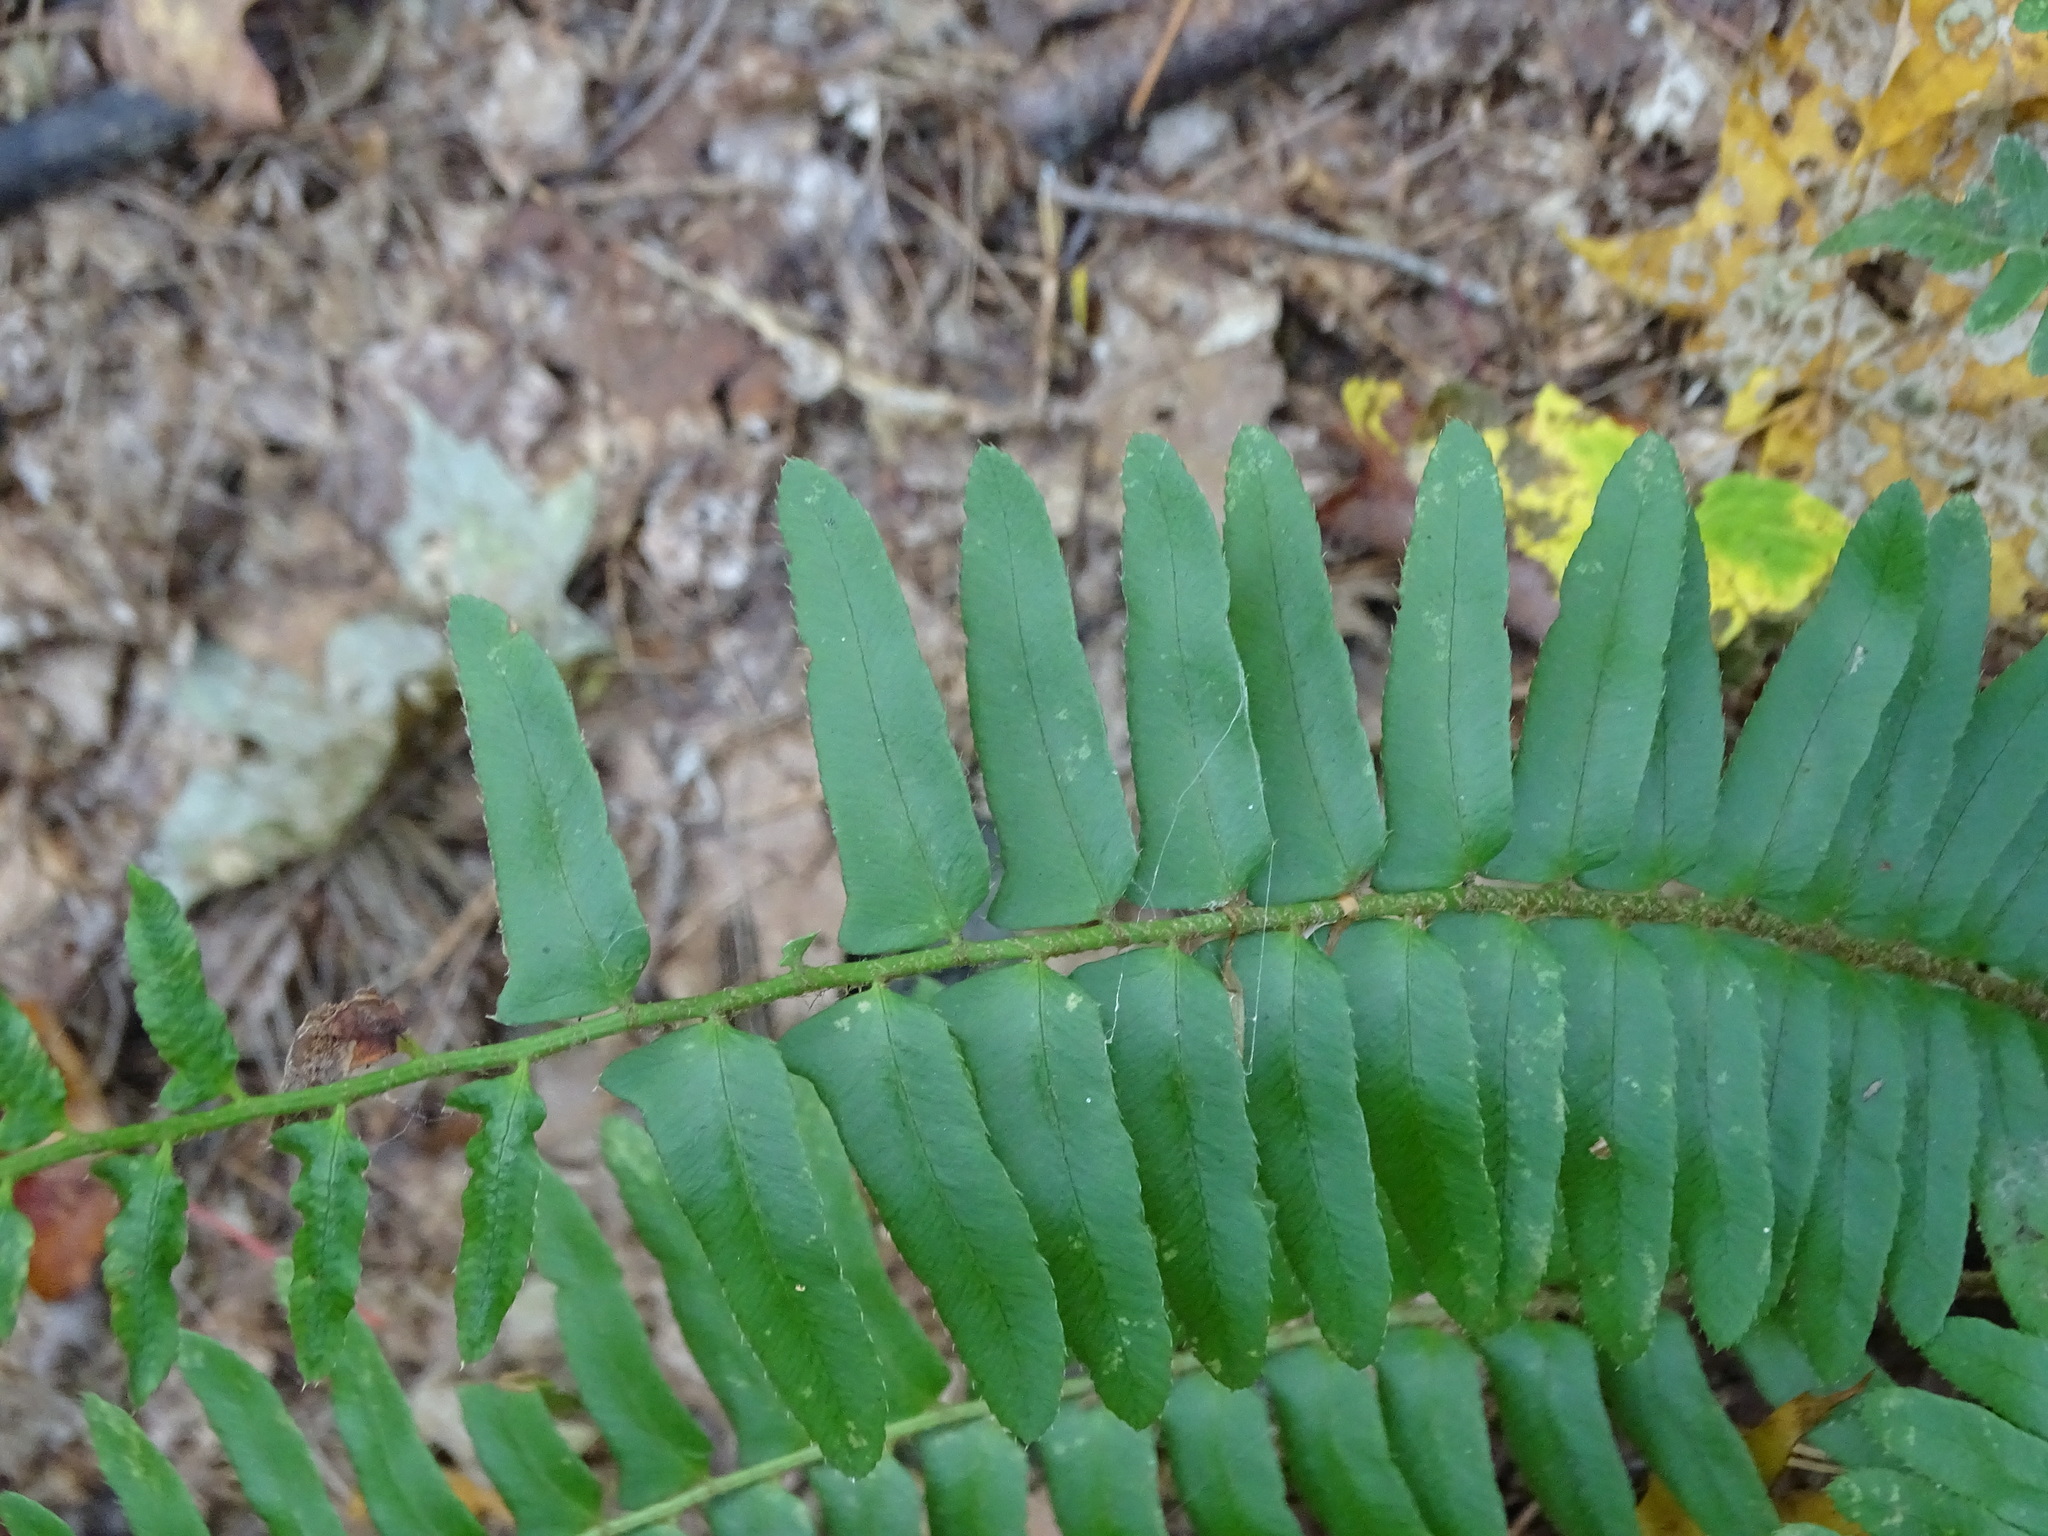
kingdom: Plantae
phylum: Tracheophyta
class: Polypodiopsida
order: Polypodiales
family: Dryopteridaceae
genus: Polystichum
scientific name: Polystichum acrostichoides
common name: Christmas fern
